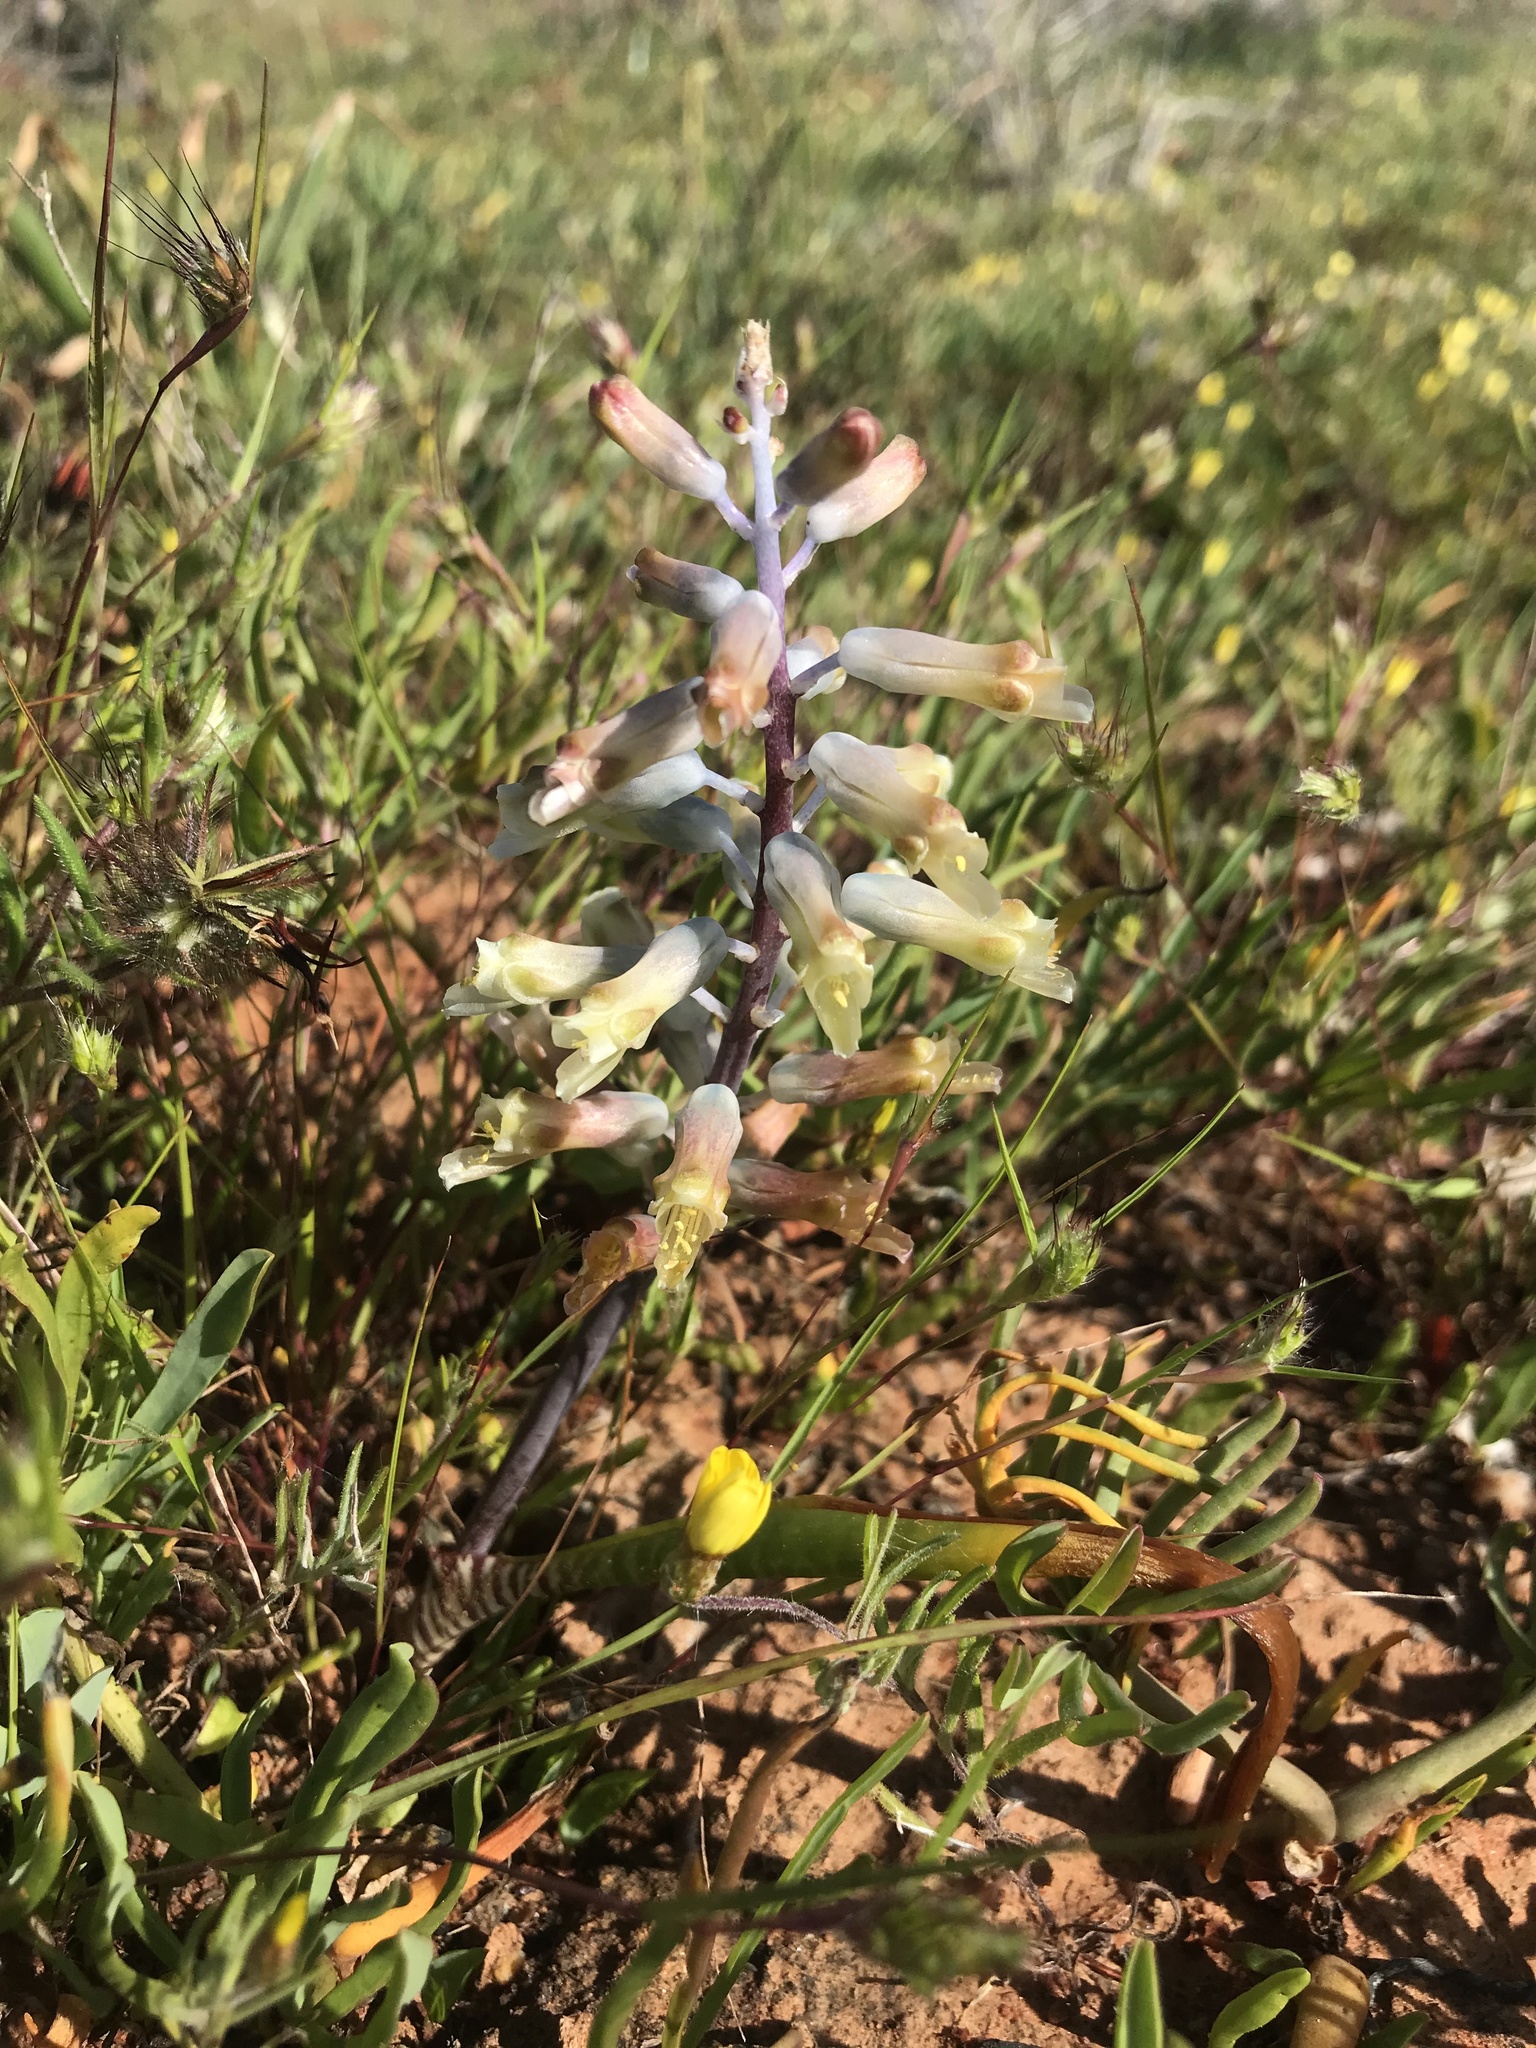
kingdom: Plantae
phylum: Tracheophyta
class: Liliopsida
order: Asparagales
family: Asparagaceae
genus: Lachenalia
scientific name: Lachenalia unifolia
